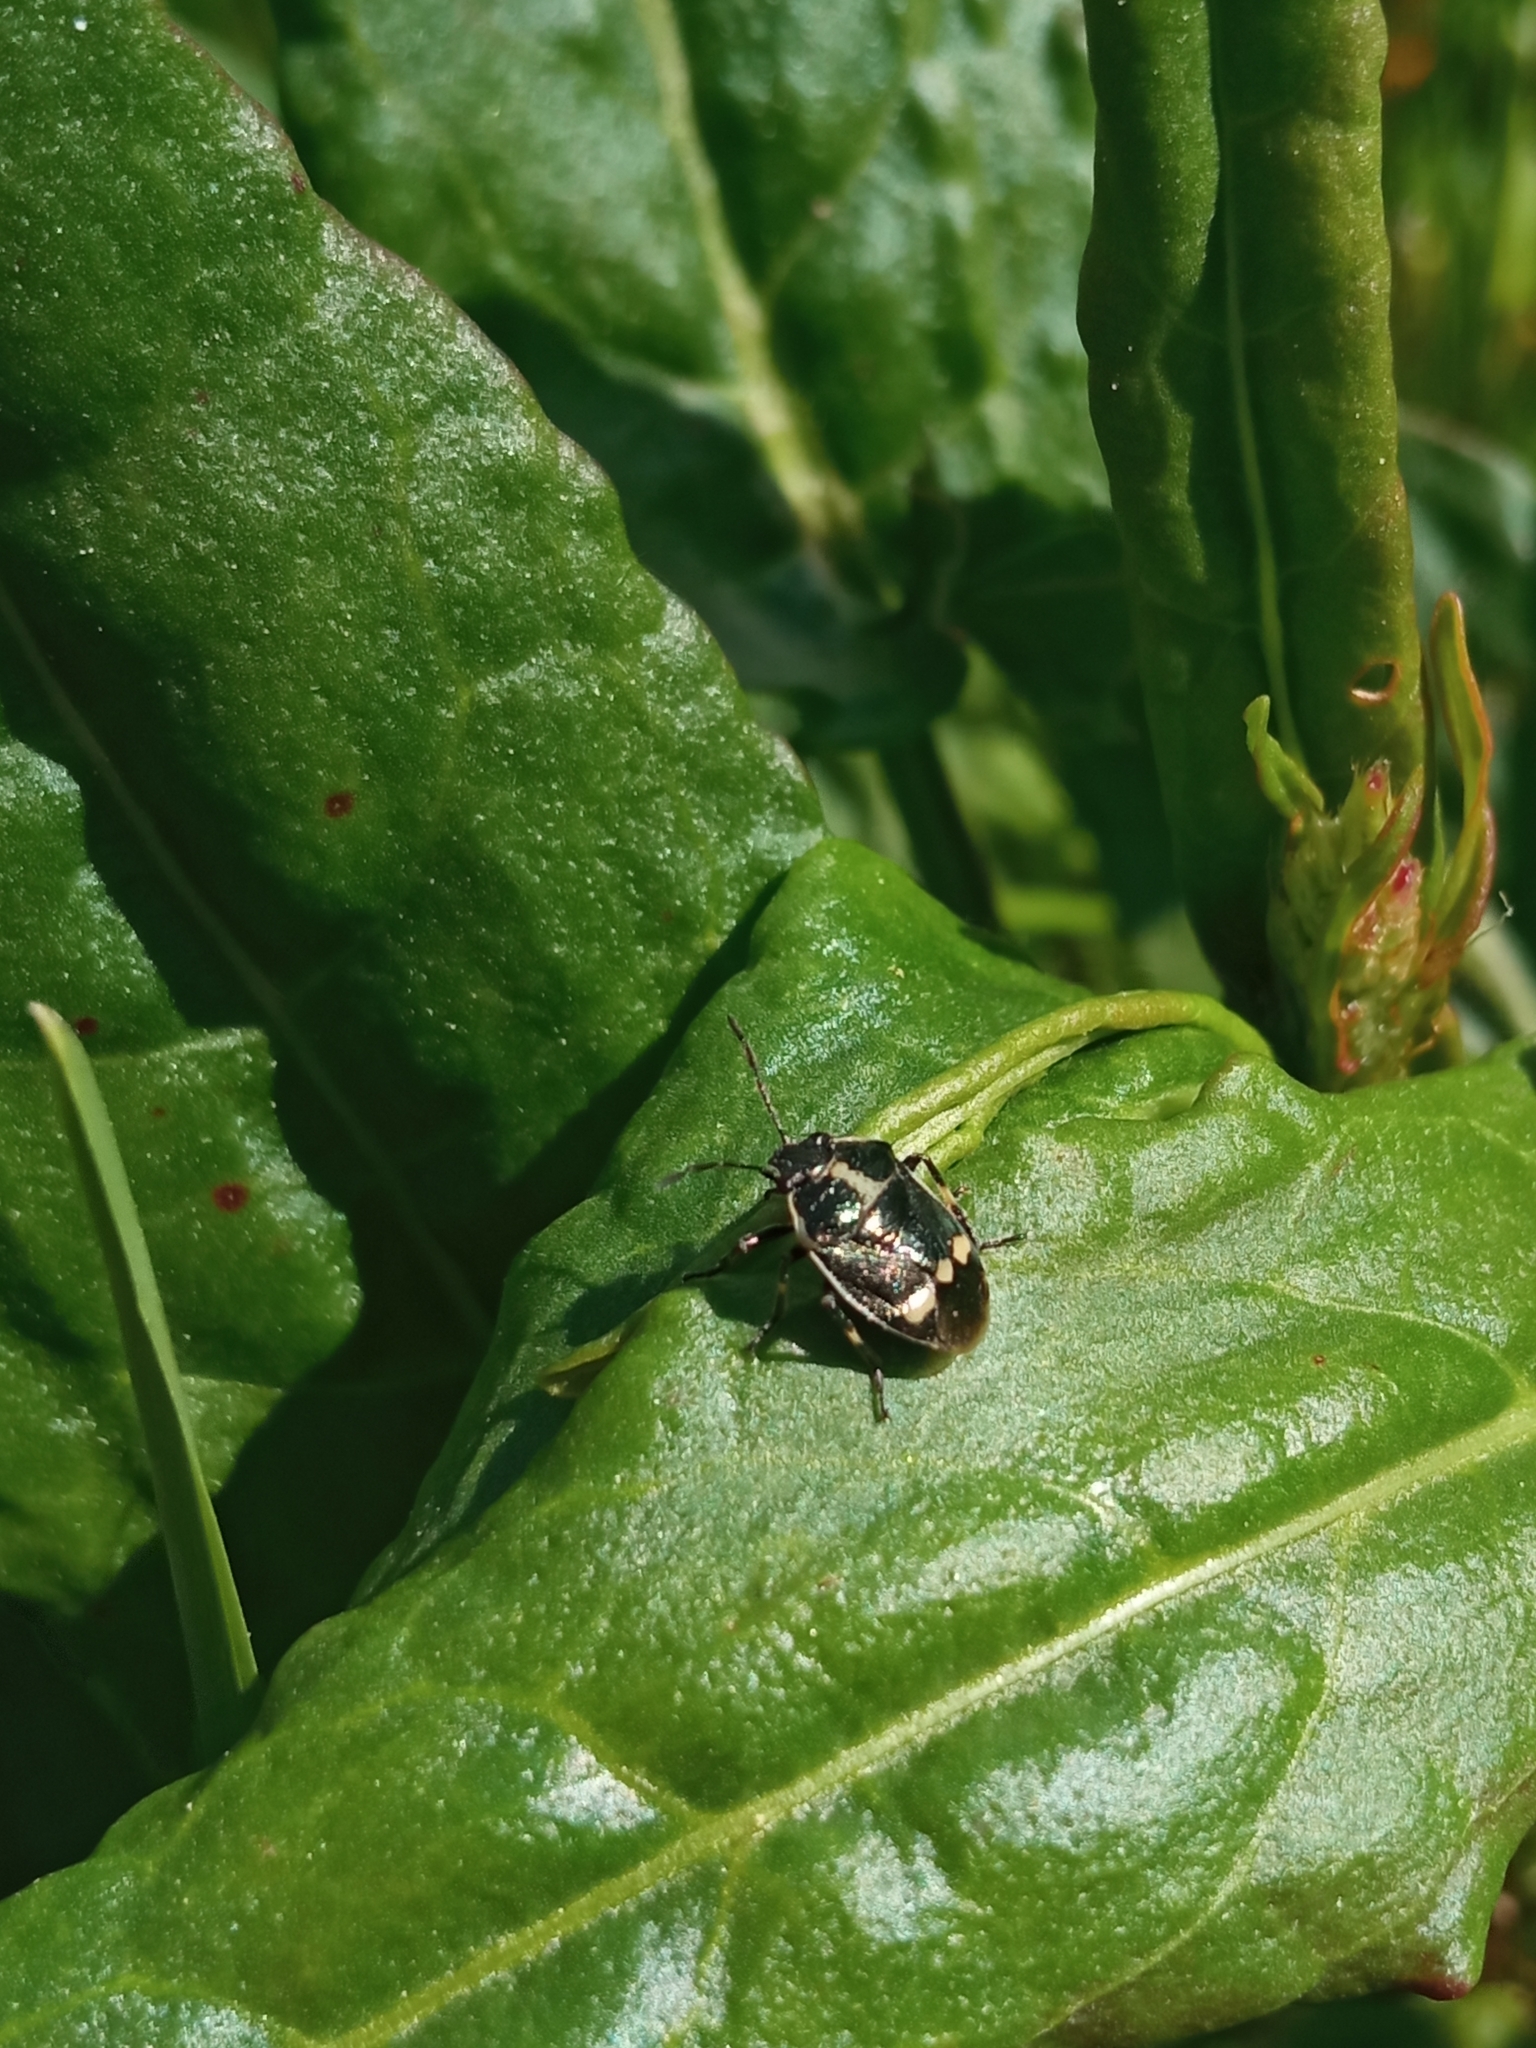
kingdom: Animalia
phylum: Arthropoda
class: Insecta
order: Hemiptera
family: Pentatomidae
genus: Eurydema
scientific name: Eurydema oleracea
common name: Cabbage bug
